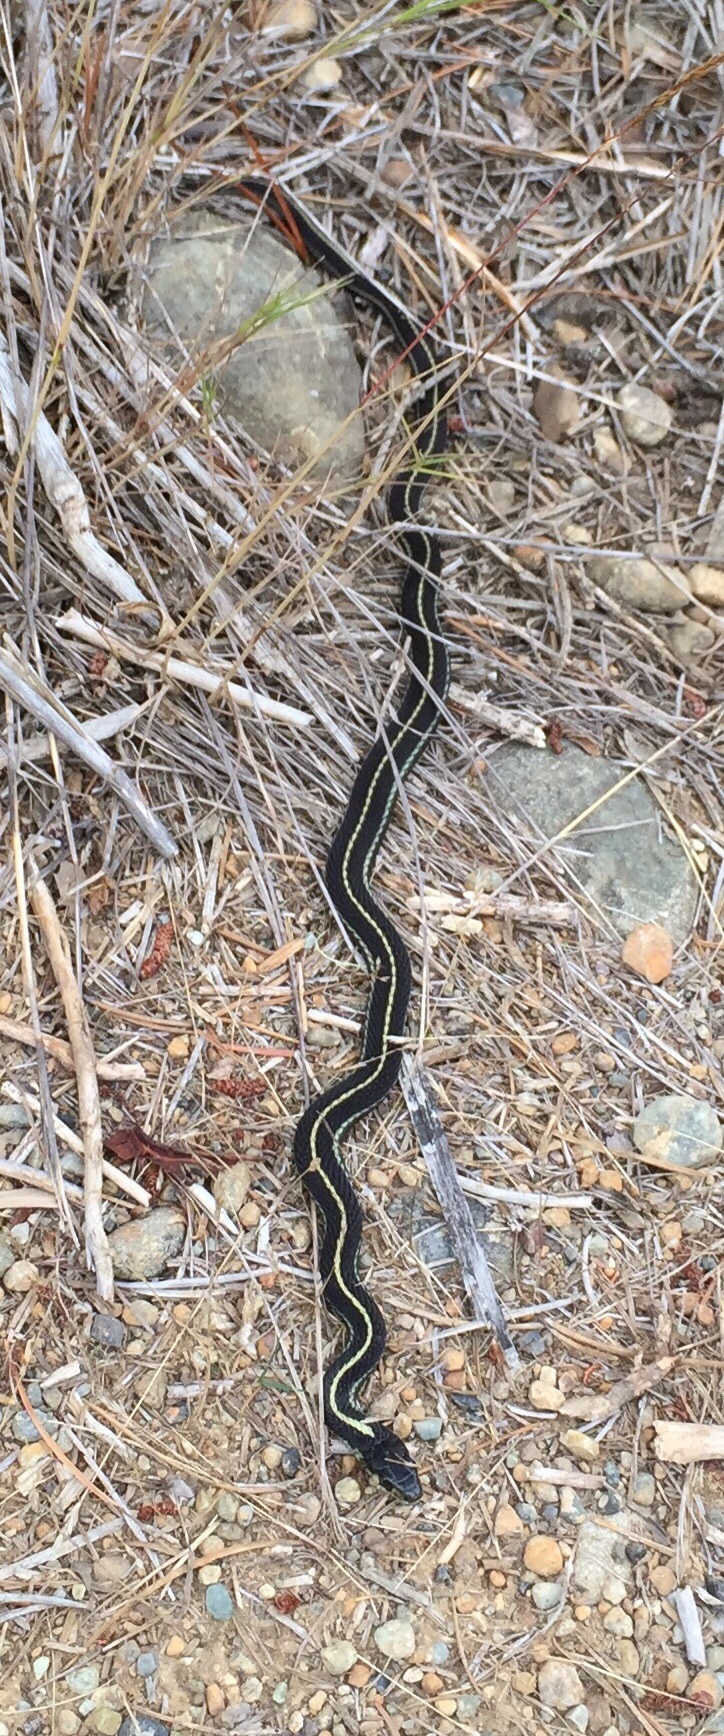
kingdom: Animalia
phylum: Chordata
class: Squamata
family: Colubridae
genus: Thamnophis
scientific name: Thamnophis sirtalis
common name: Common garter snake
